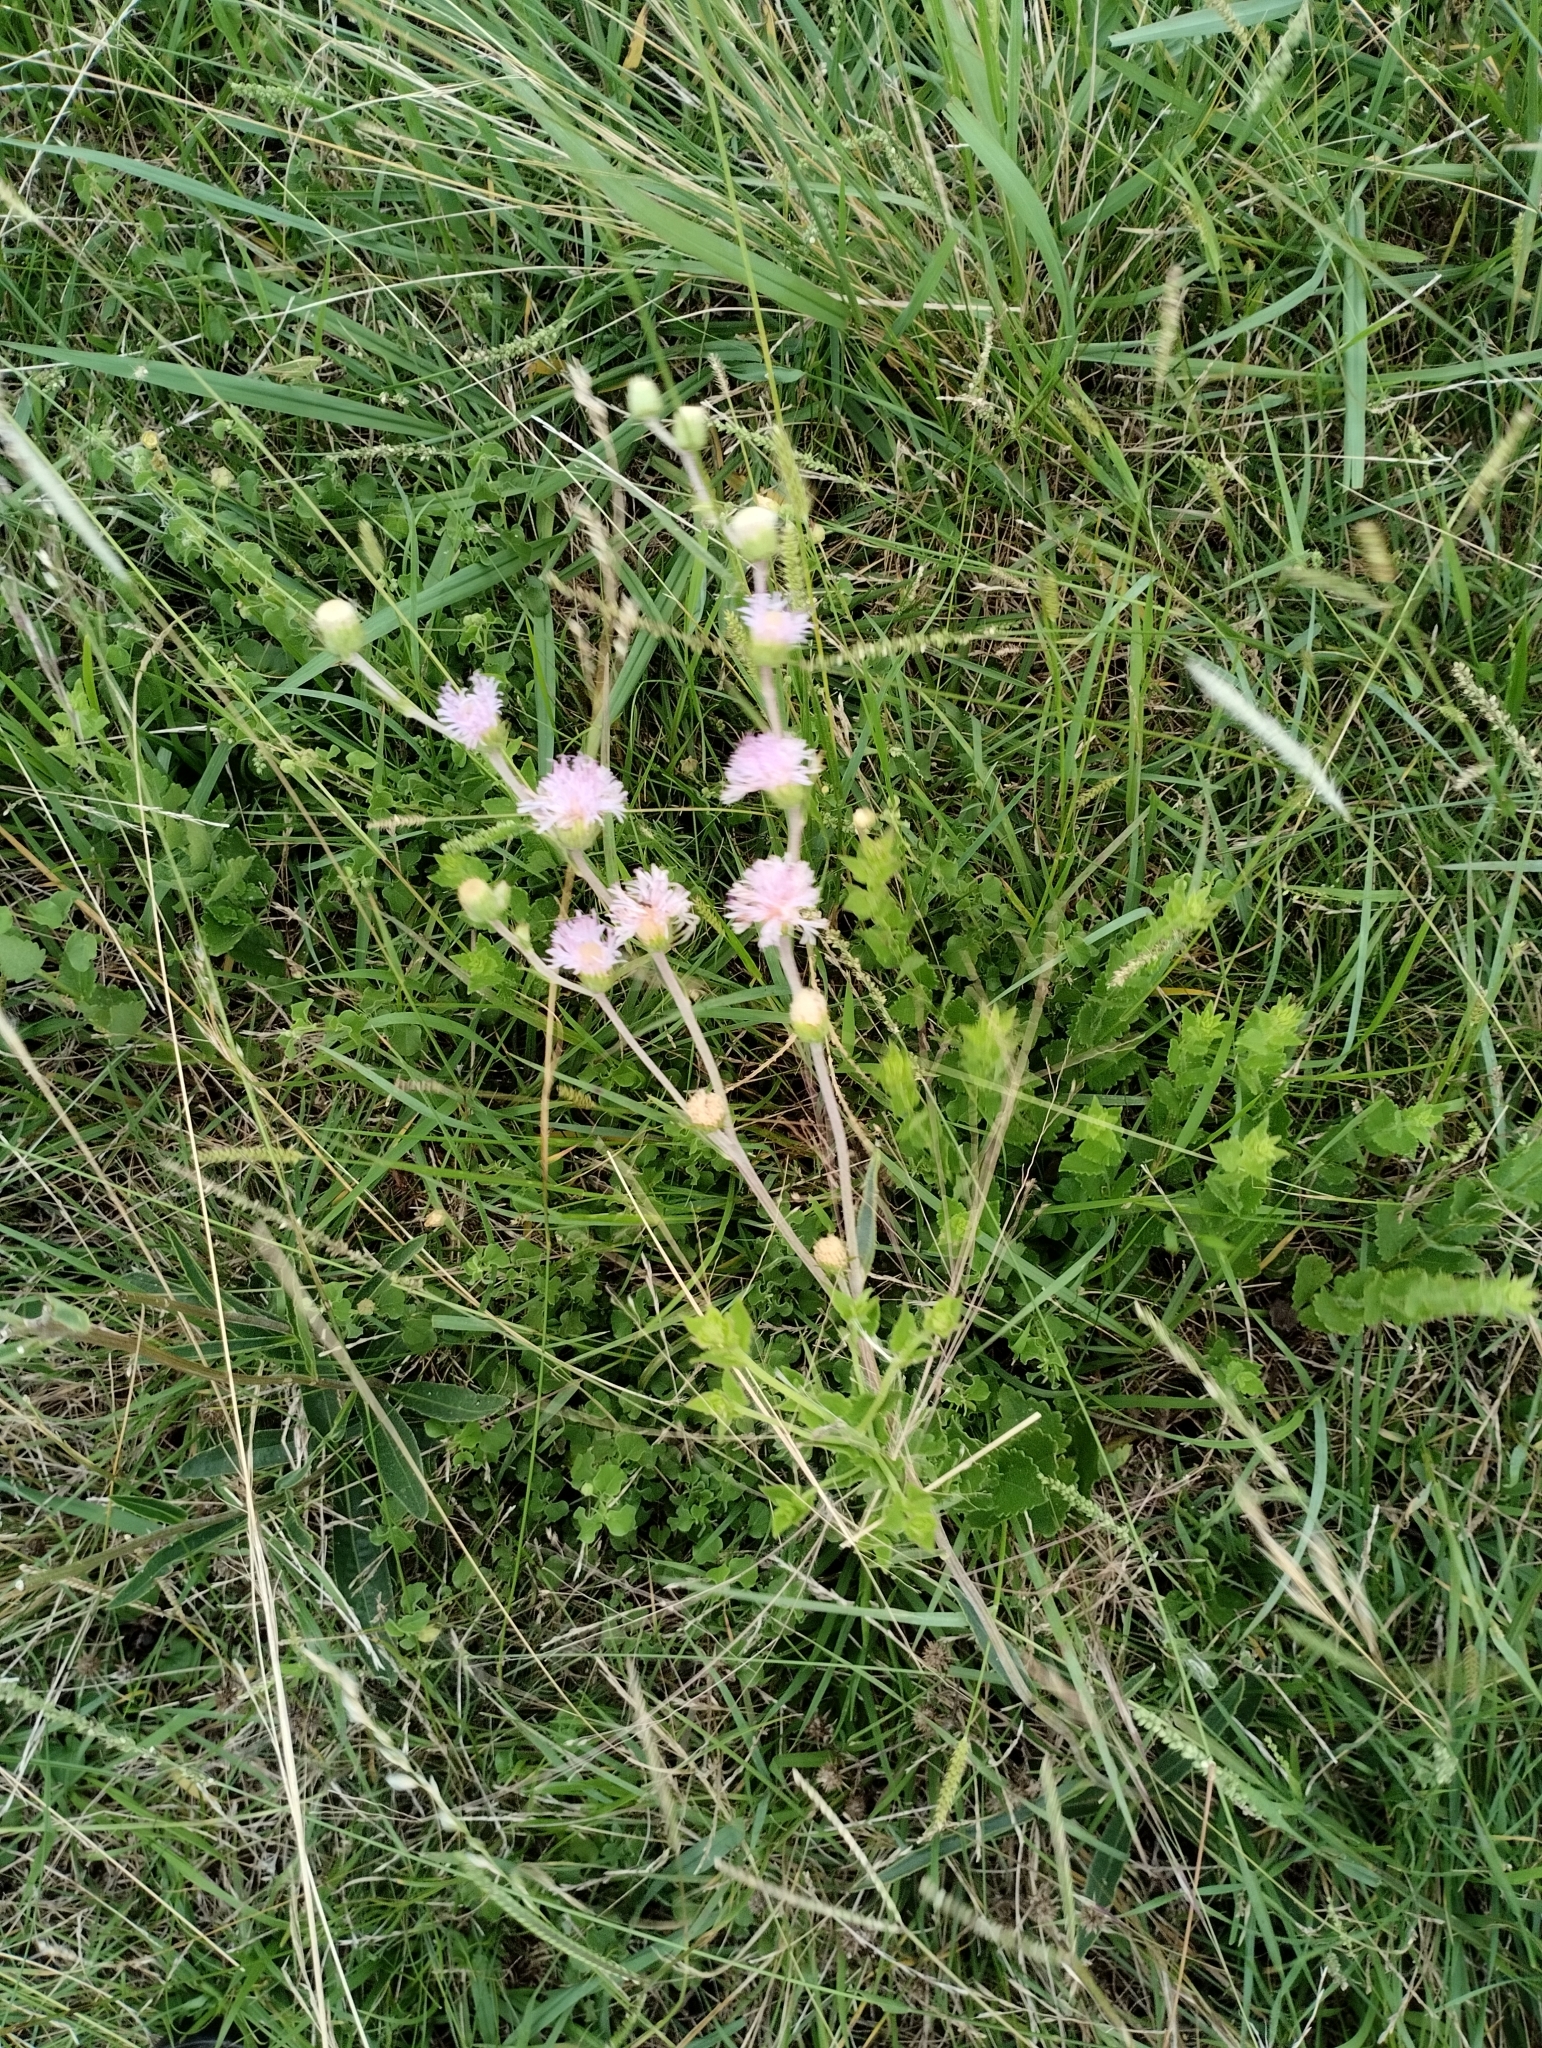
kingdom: Plantae
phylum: Tracheophyta
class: Magnoliopsida
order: Asterales
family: Asteraceae
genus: Chrysolaena
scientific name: Chrysolaena flexuosa
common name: Zig-zag vernonia
